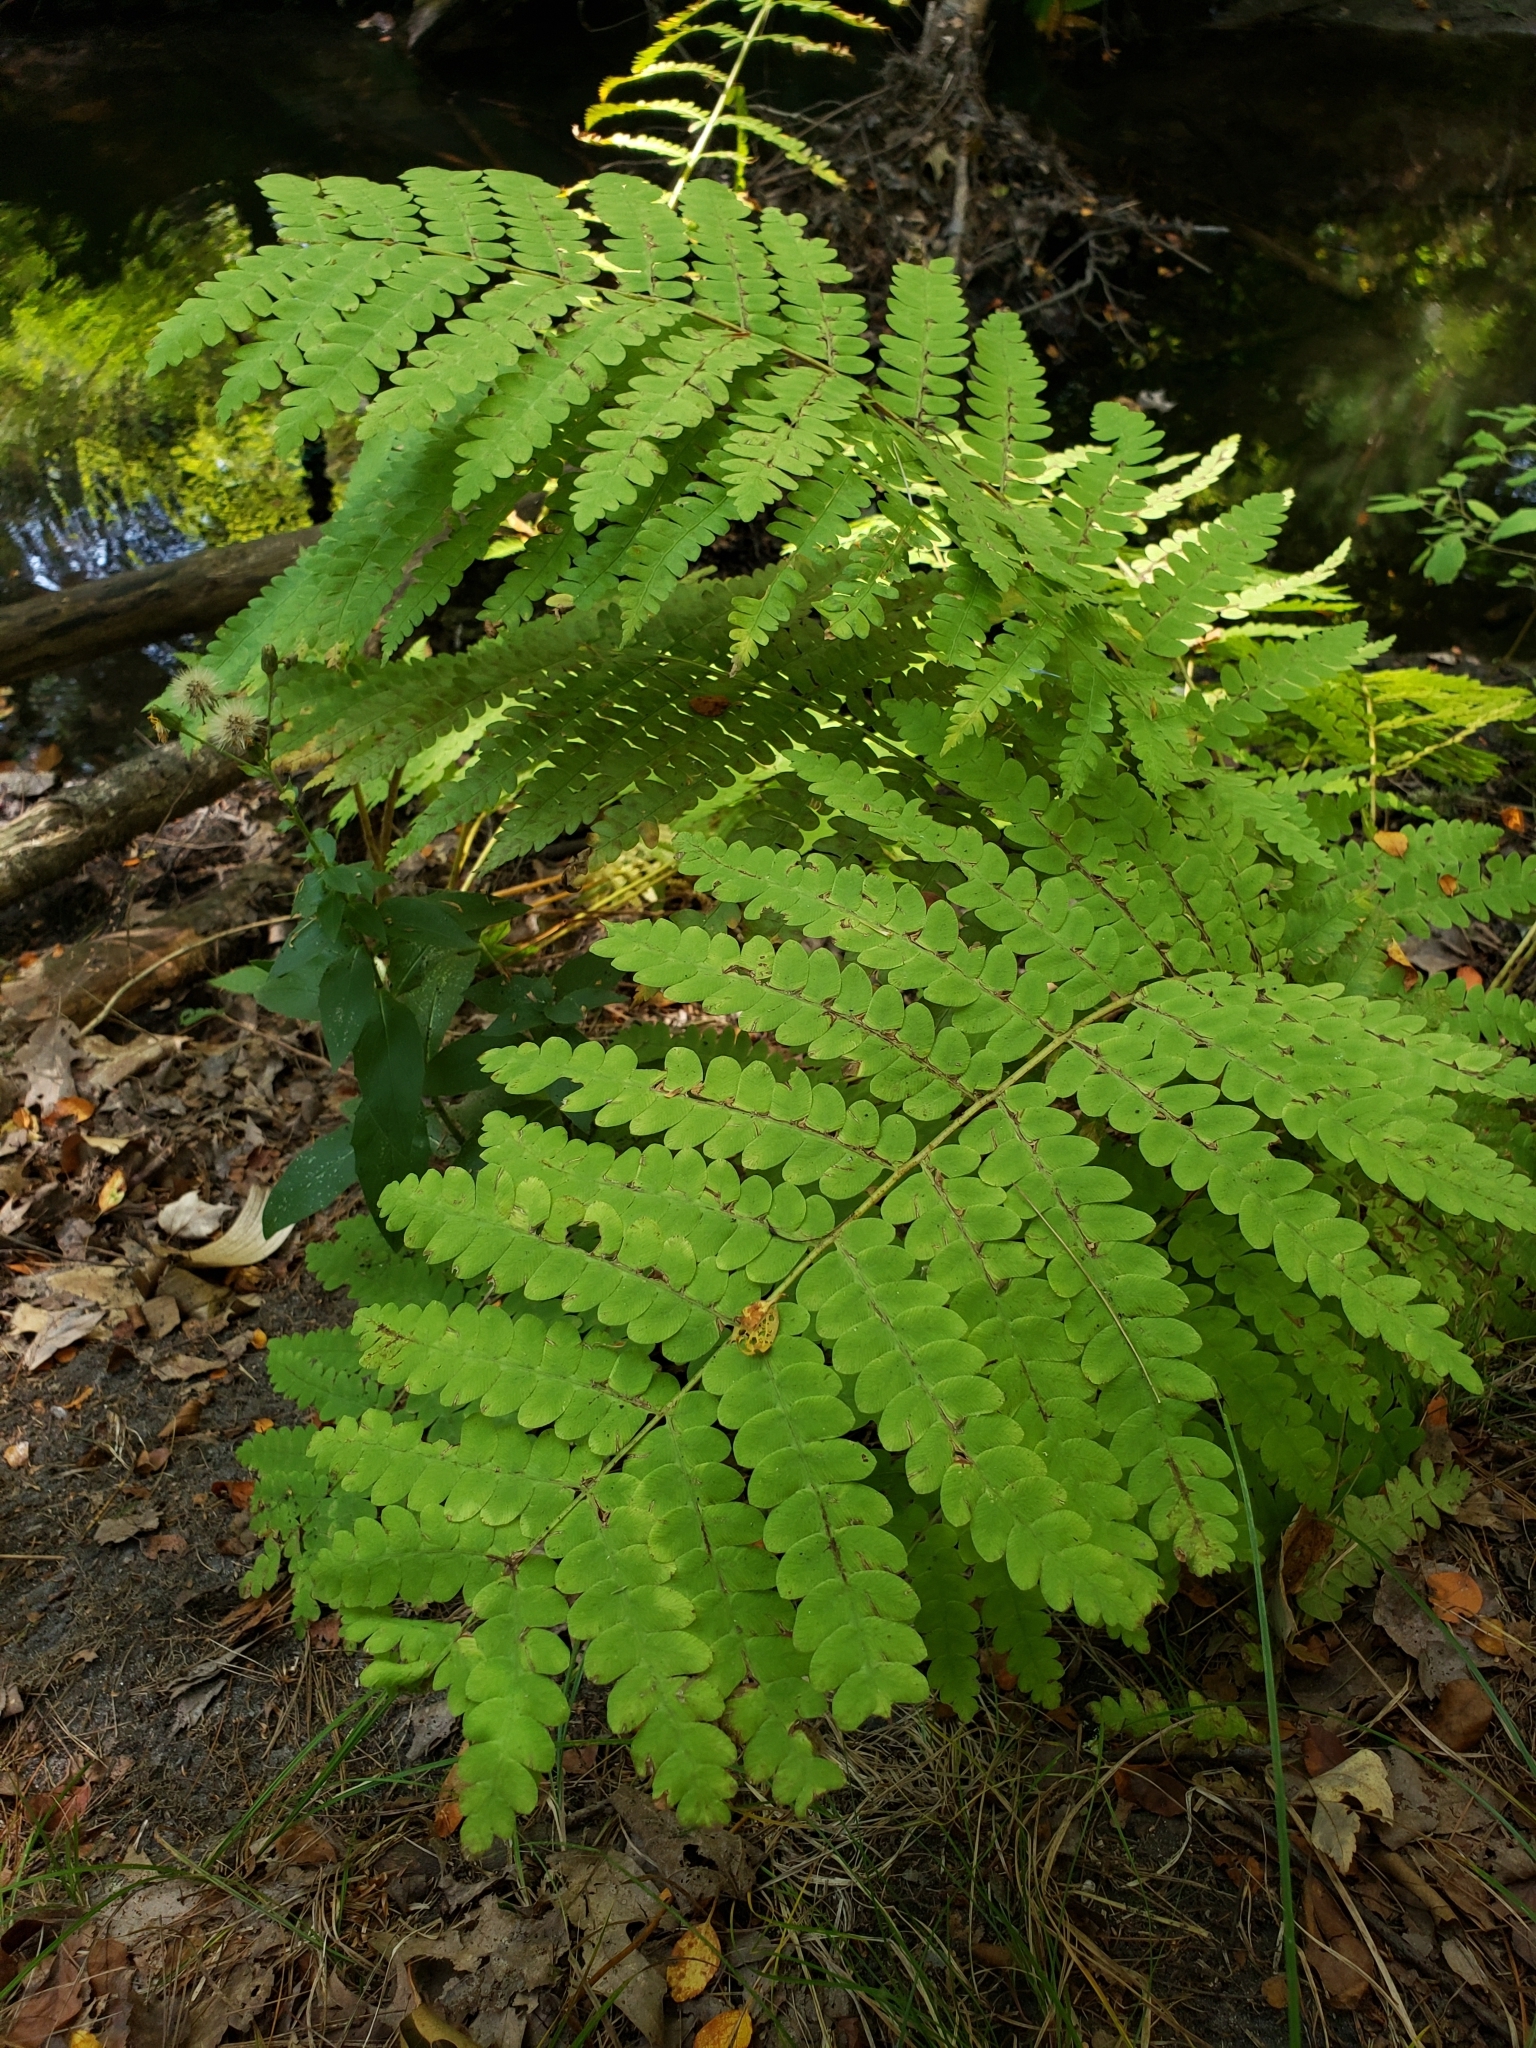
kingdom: Plantae
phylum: Tracheophyta
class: Polypodiopsida
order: Osmundales
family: Osmundaceae
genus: Claytosmunda
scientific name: Claytosmunda claytoniana
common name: Clayton's fern
